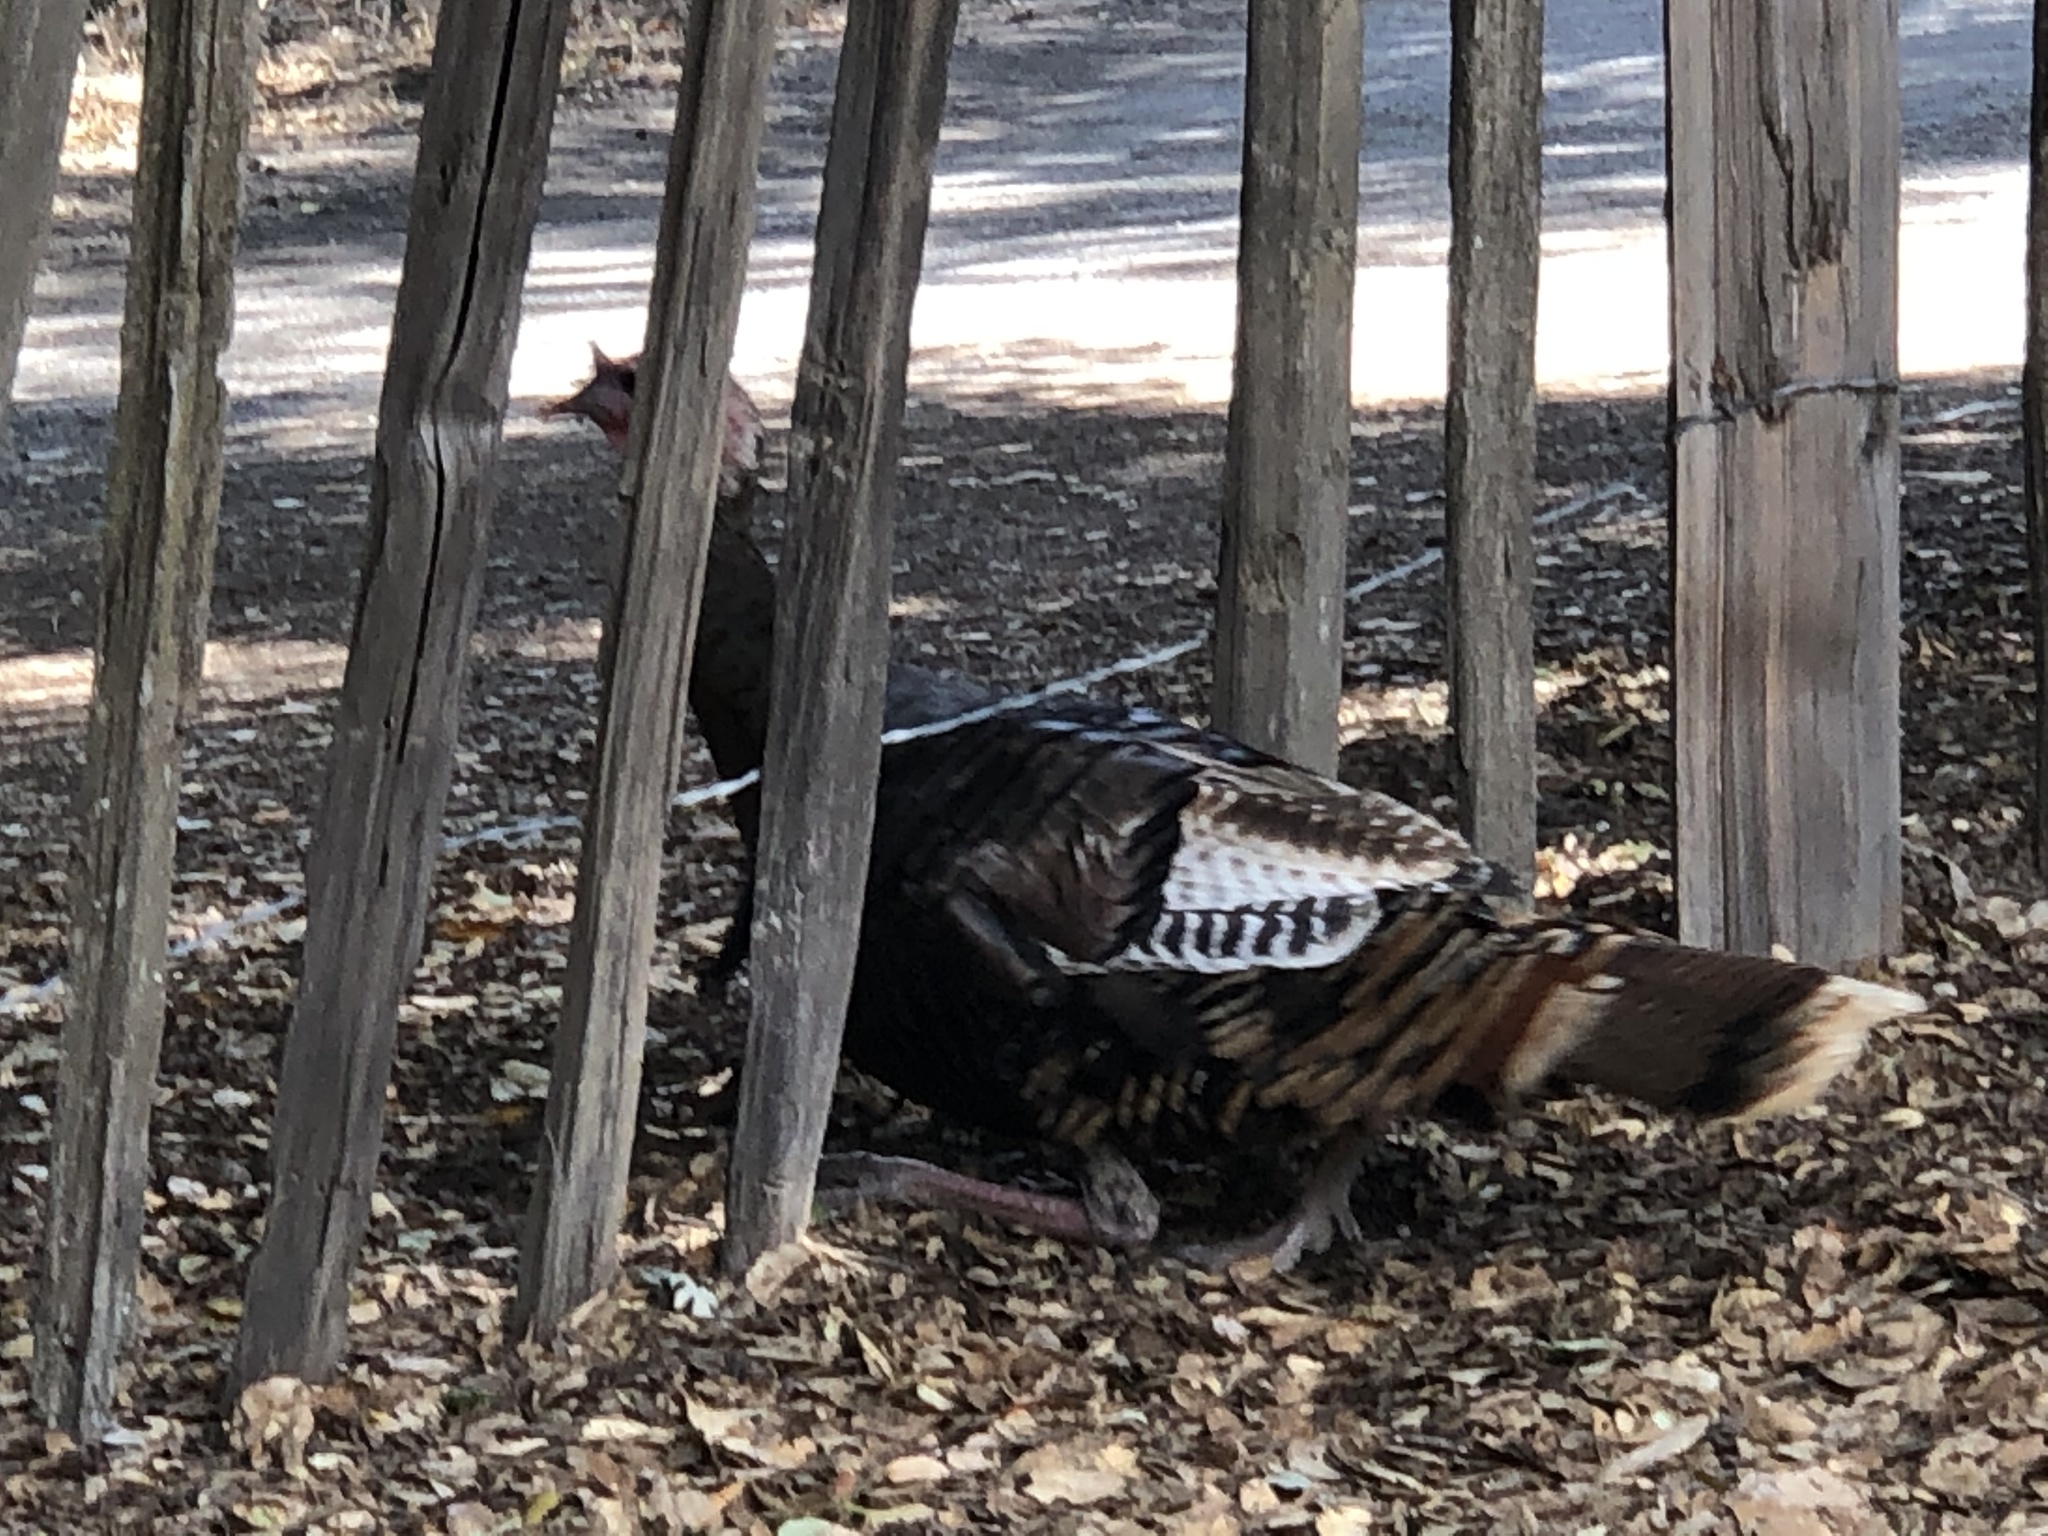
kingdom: Animalia
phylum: Chordata
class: Aves
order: Galliformes
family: Phasianidae
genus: Meleagris
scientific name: Meleagris gallopavo
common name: Wild turkey
